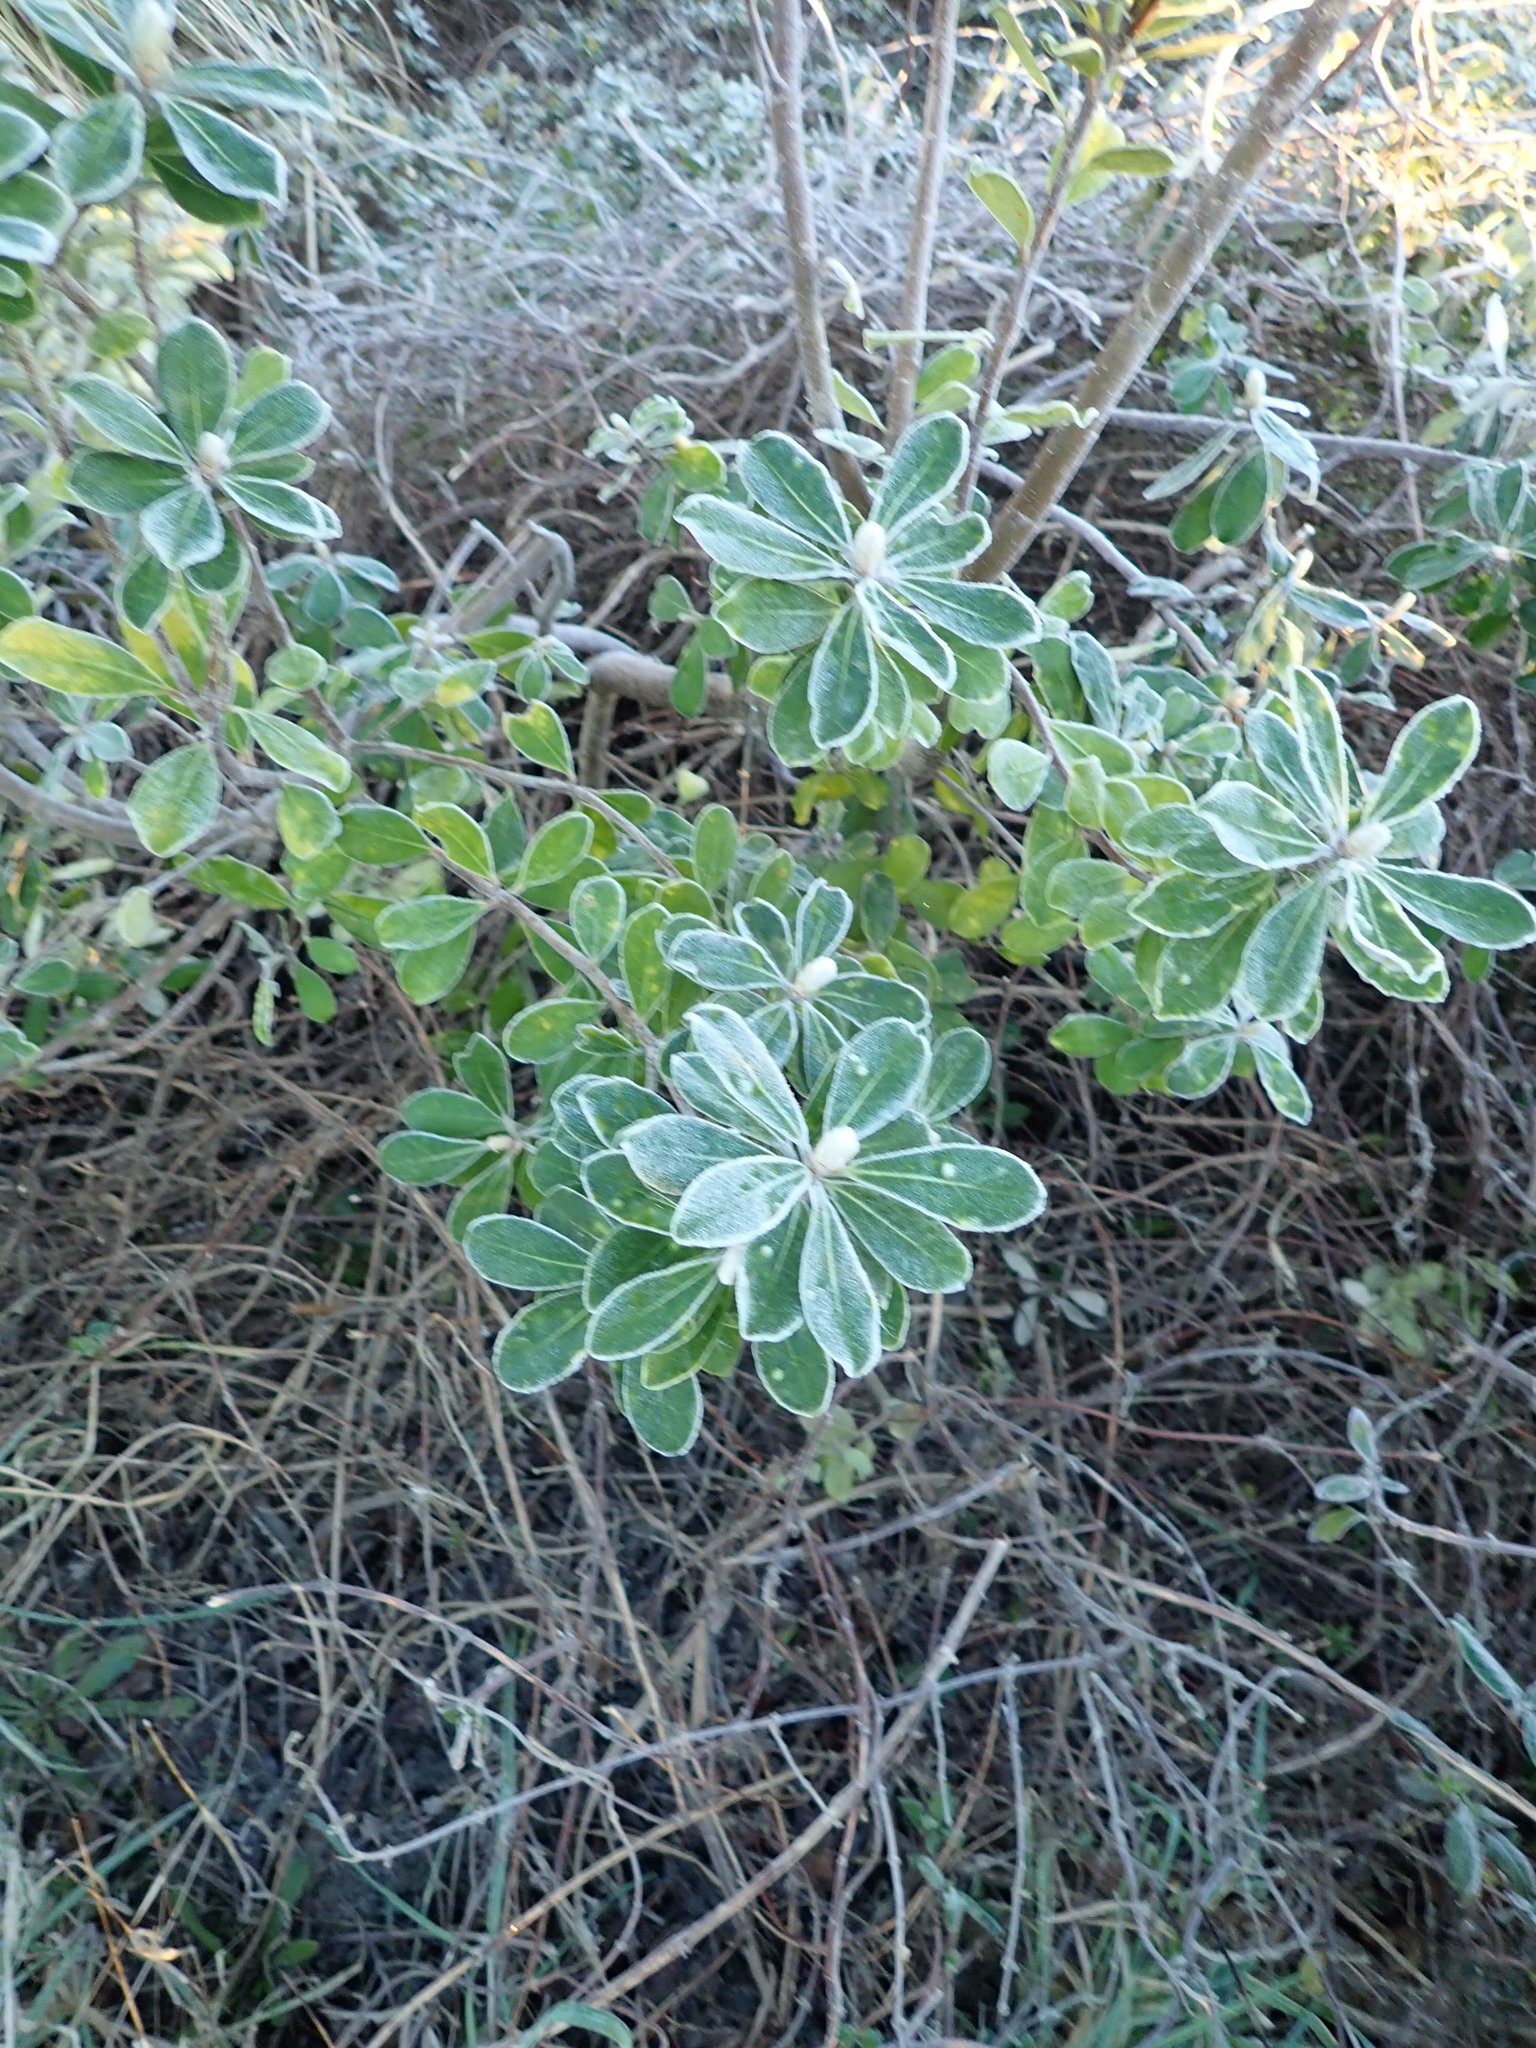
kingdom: Plantae
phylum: Tracheophyta
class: Magnoliopsida
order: Apiales
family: Pittosporaceae
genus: Pittosporum
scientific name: Pittosporum crassifolium
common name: Karo
